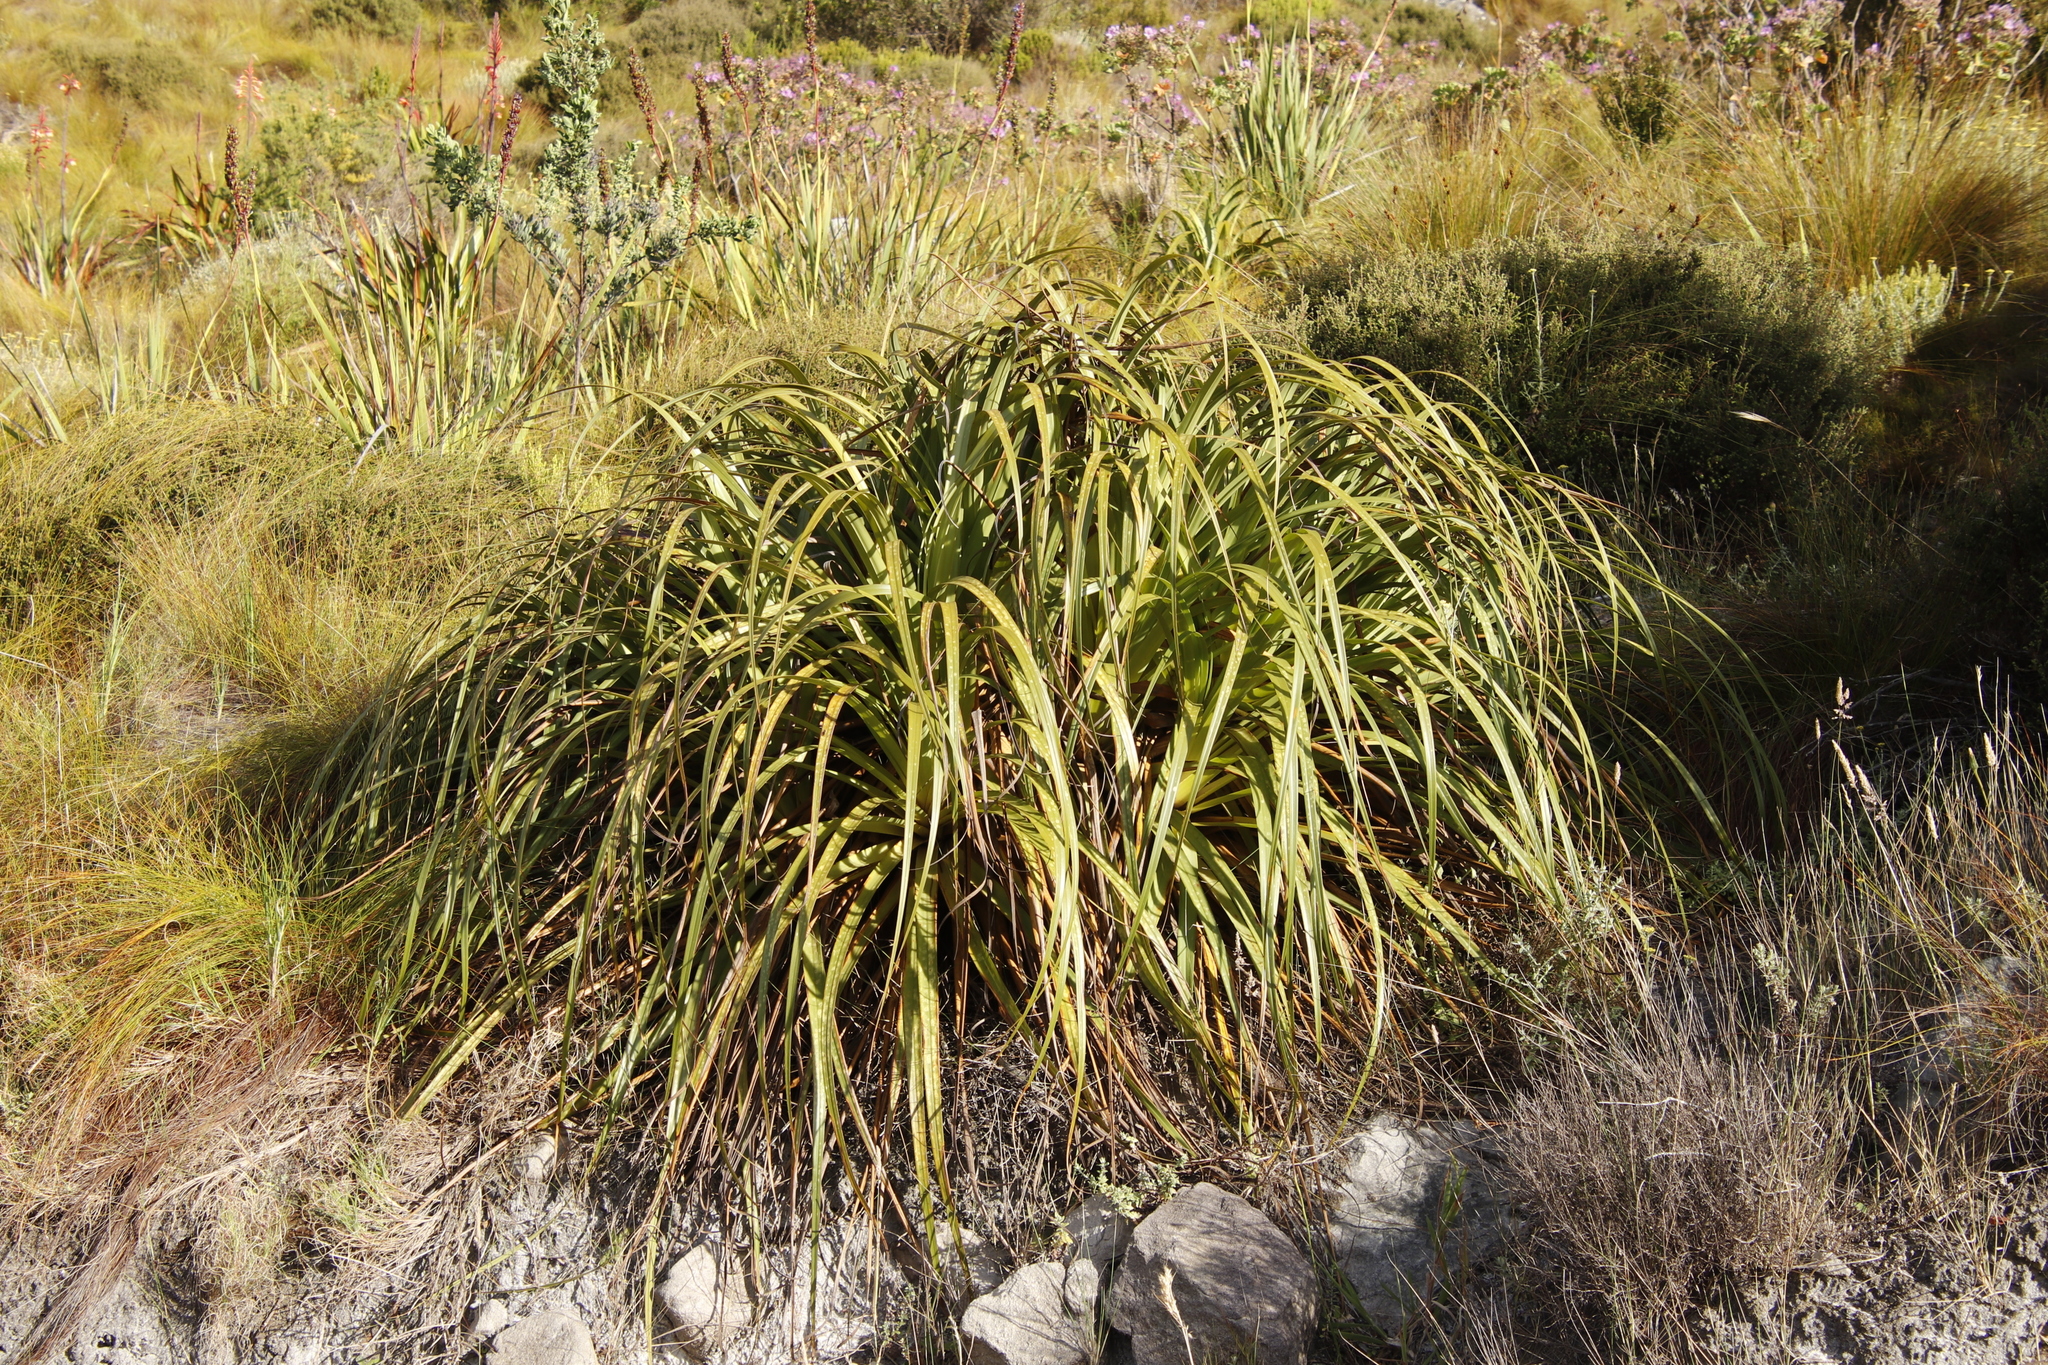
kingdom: Plantae
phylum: Tracheophyta
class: Liliopsida
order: Poales
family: Cyperaceae
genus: Tetraria
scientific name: Tetraria thermalis
